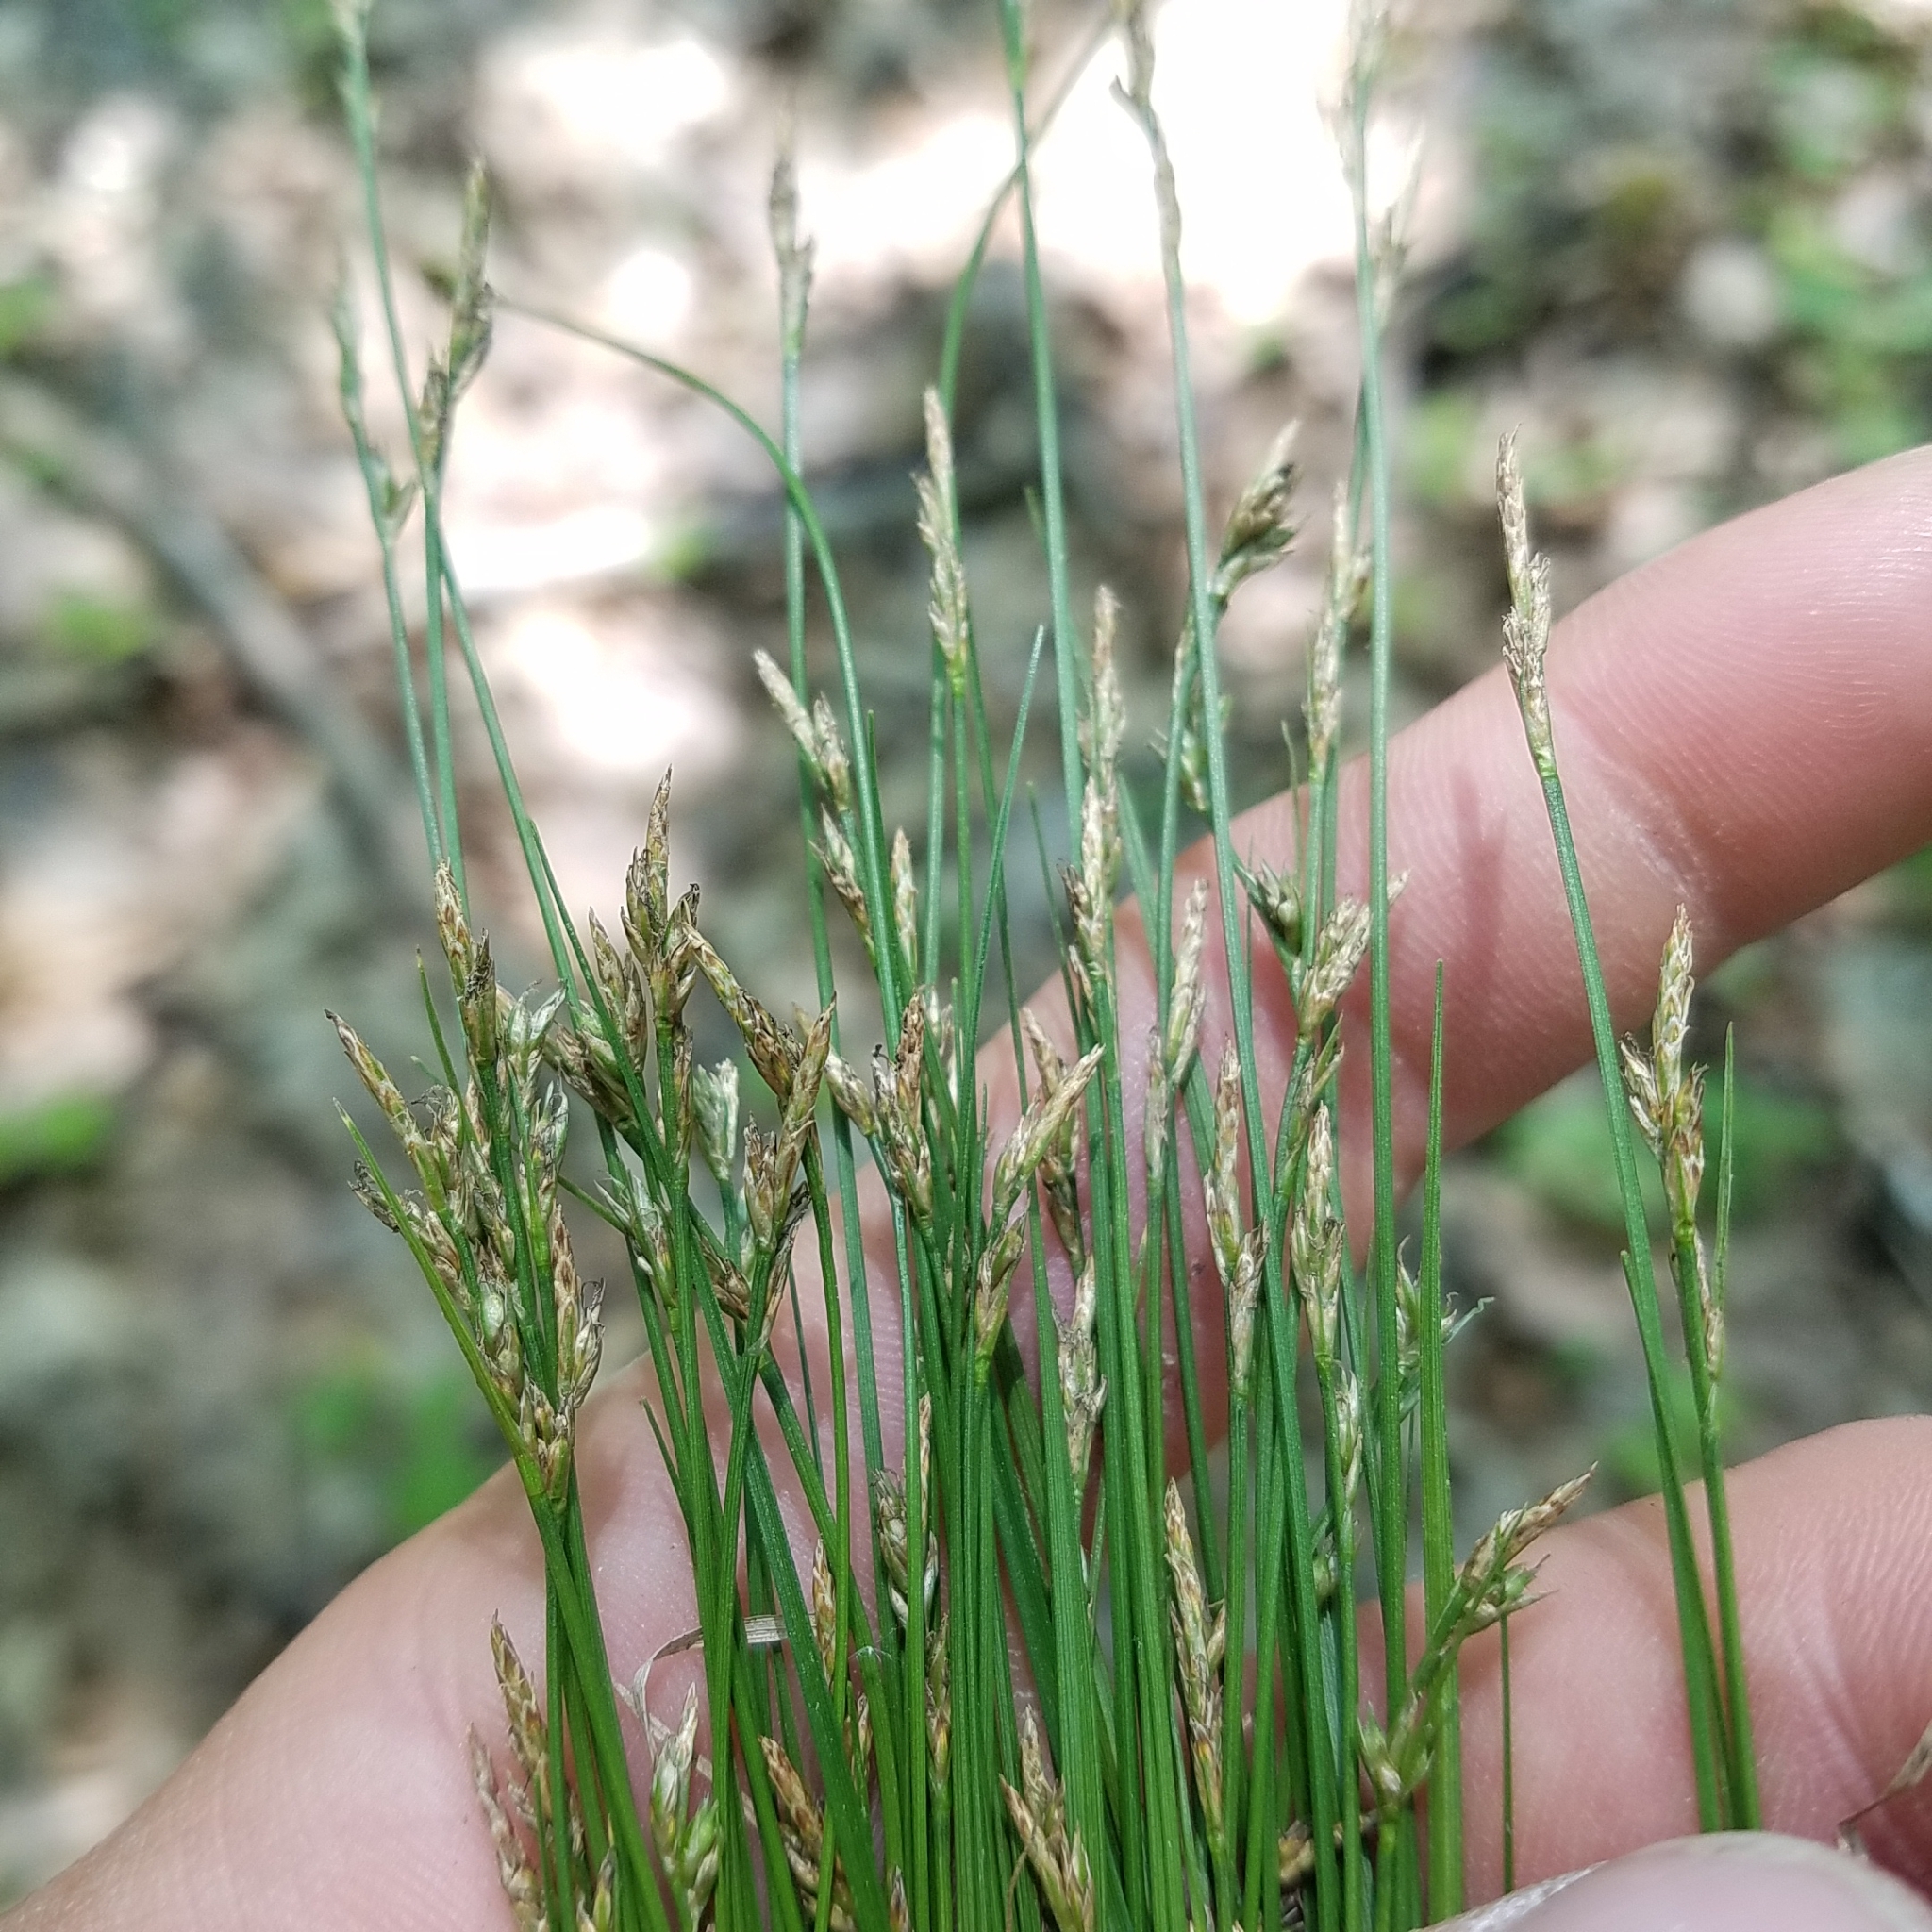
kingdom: Plantae
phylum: Tracheophyta
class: Liliopsida
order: Poales
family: Cyperaceae
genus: Carex
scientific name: Carex albicans
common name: Bellow-beaked sedge
